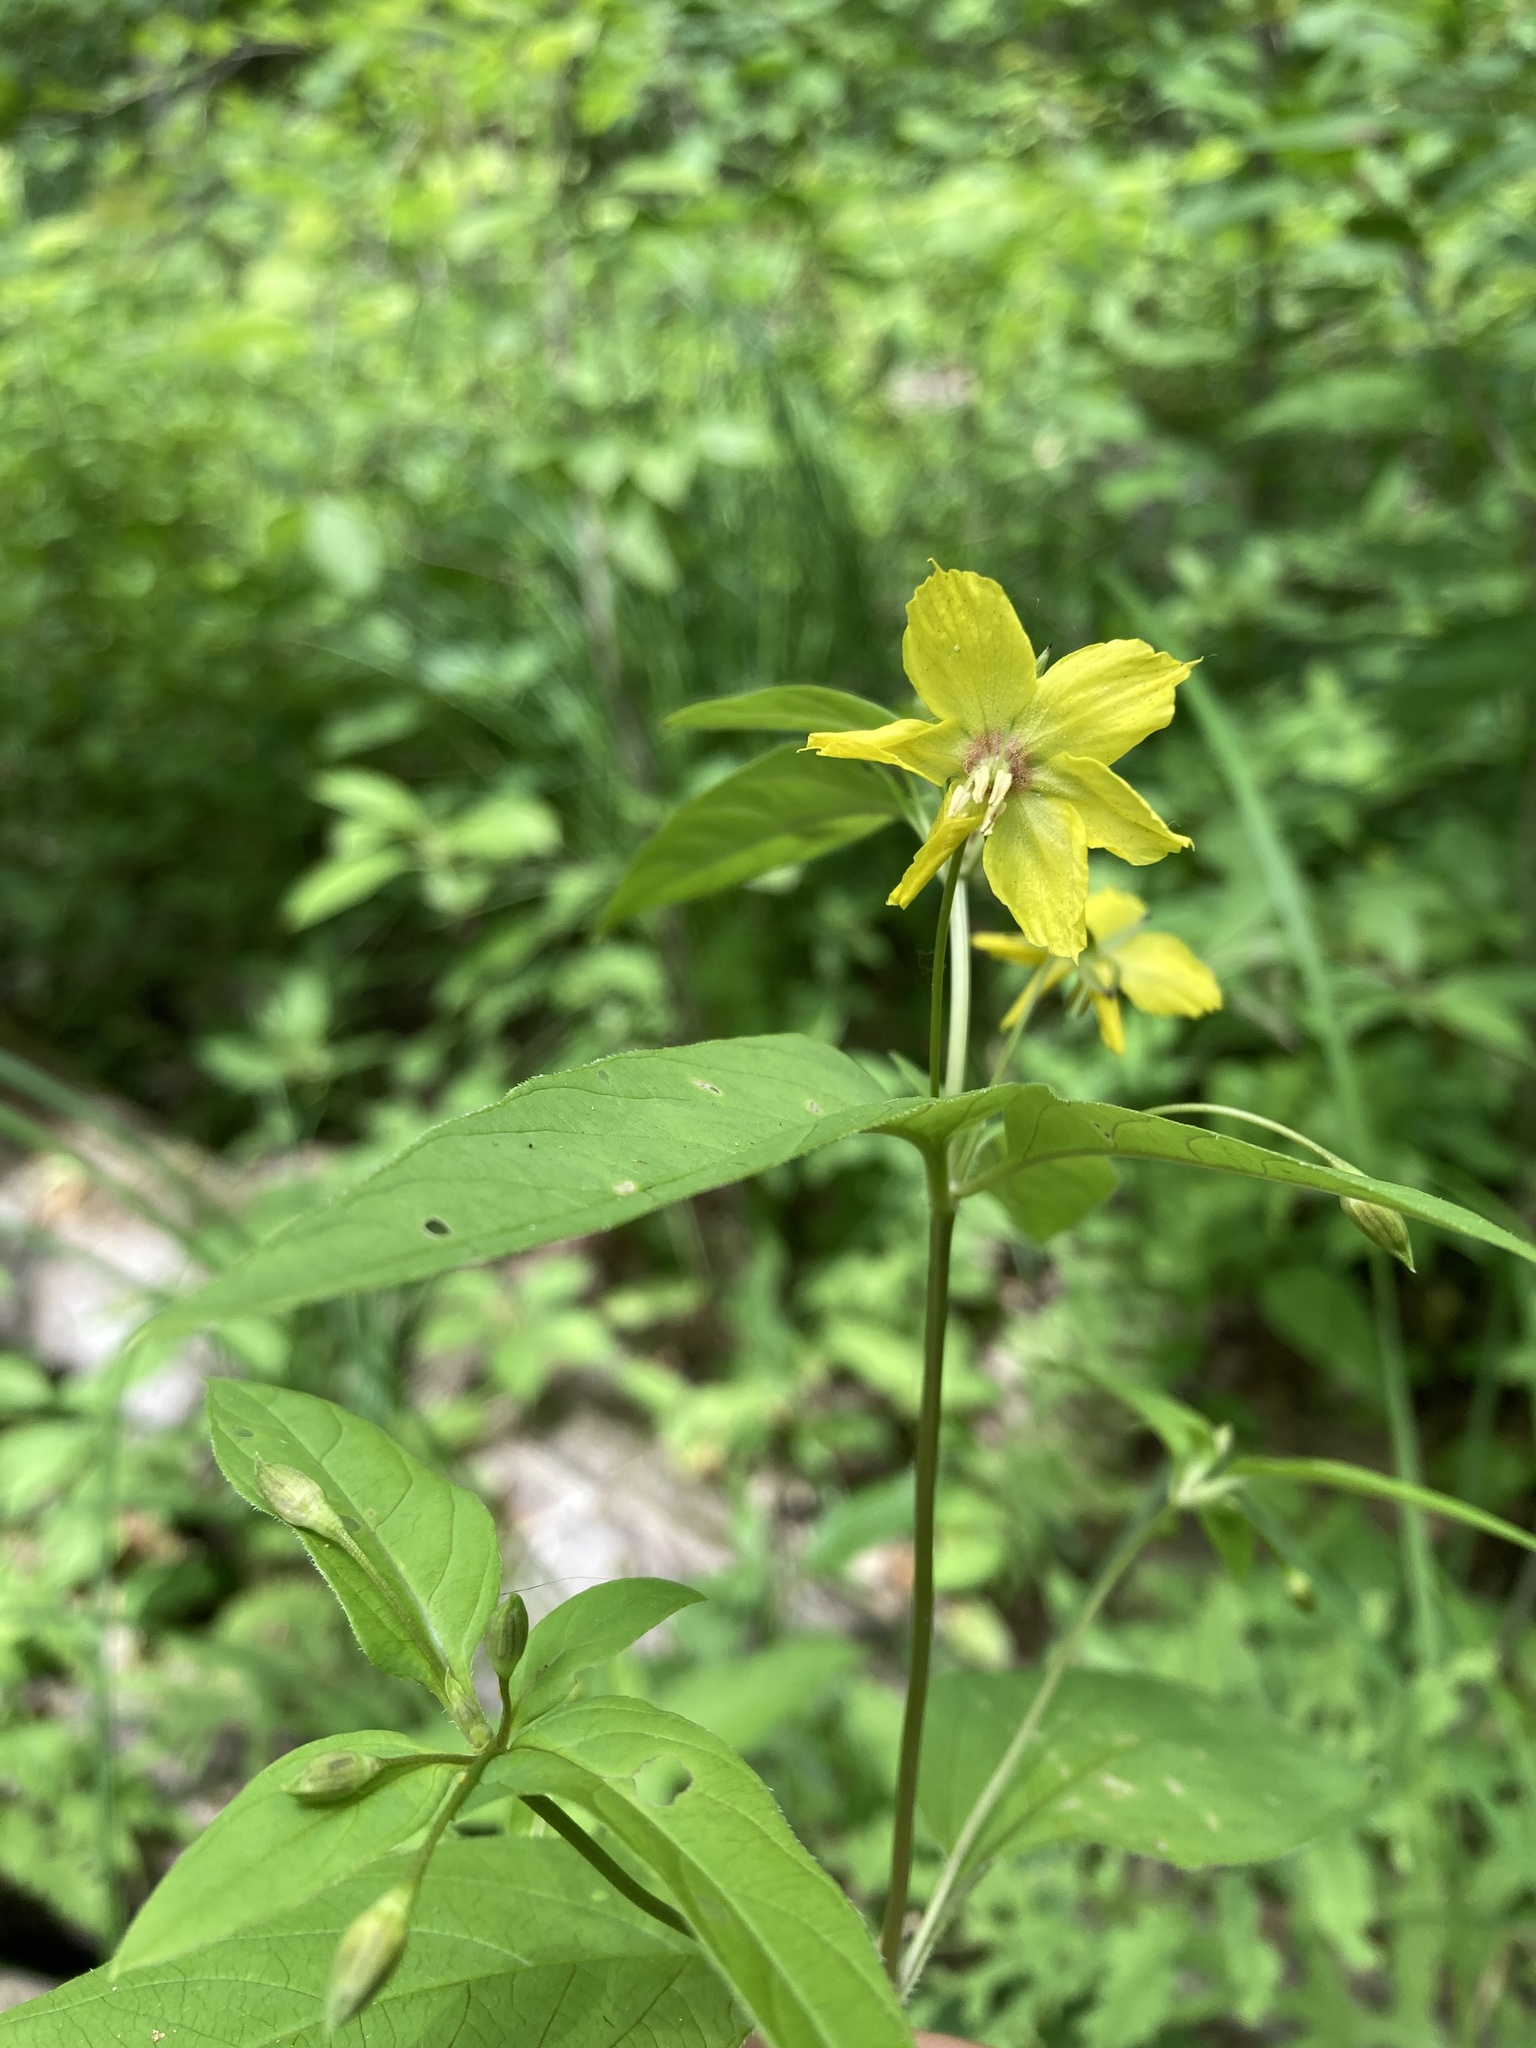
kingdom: Plantae
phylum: Tracheophyta
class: Magnoliopsida
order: Ericales
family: Primulaceae
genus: Lysimachia
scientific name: Lysimachia ciliata
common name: Fringed loosestrife
